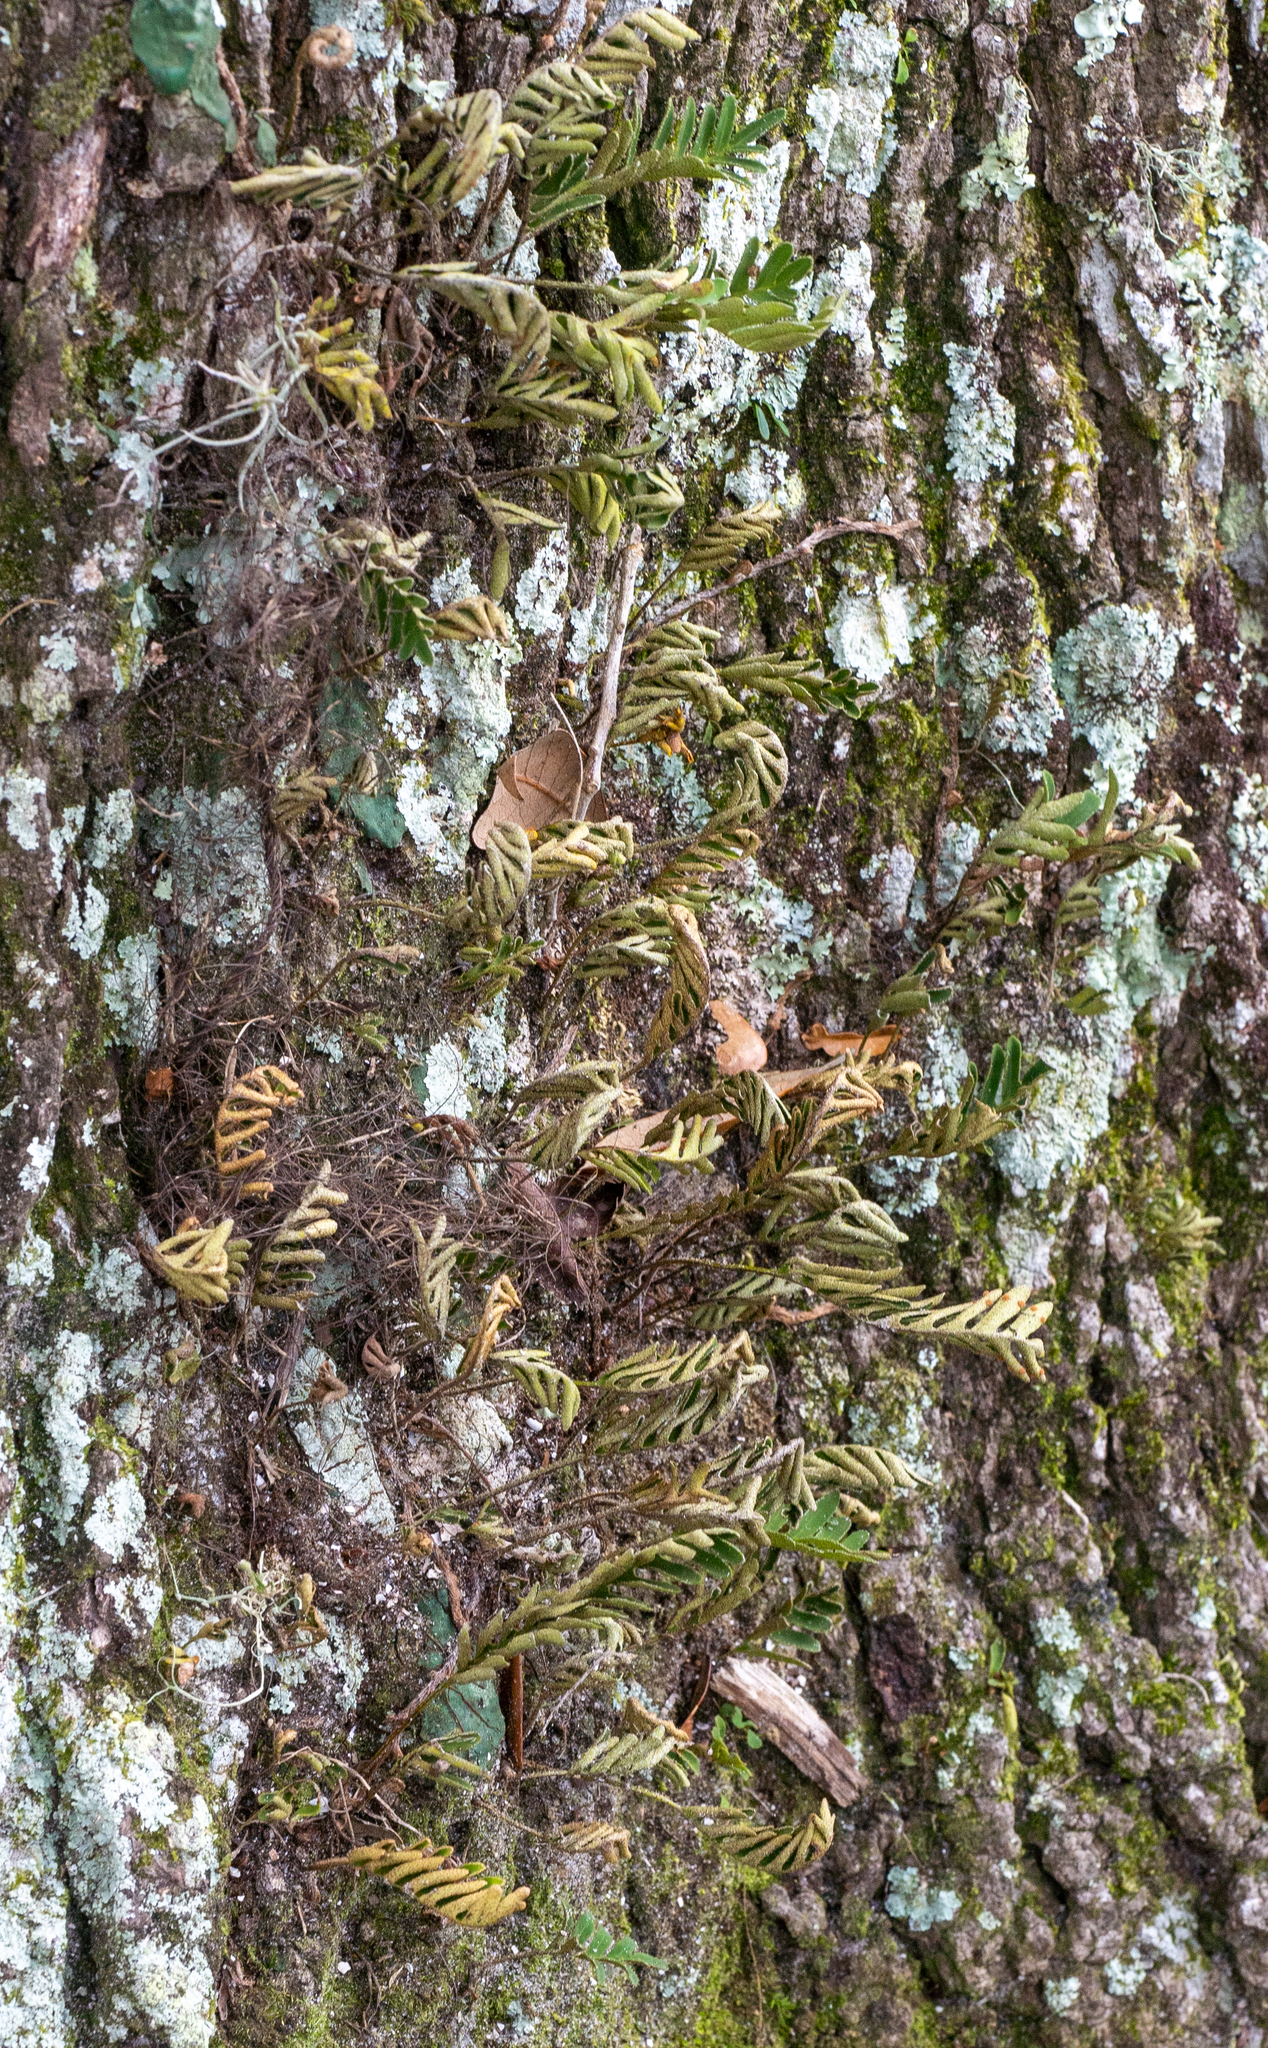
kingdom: Plantae
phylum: Tracheophyta
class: Polypodiopsida
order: Polypodiales
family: Polypodiaceae
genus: Pleopeltis
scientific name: Pleopeltis michauxiana
